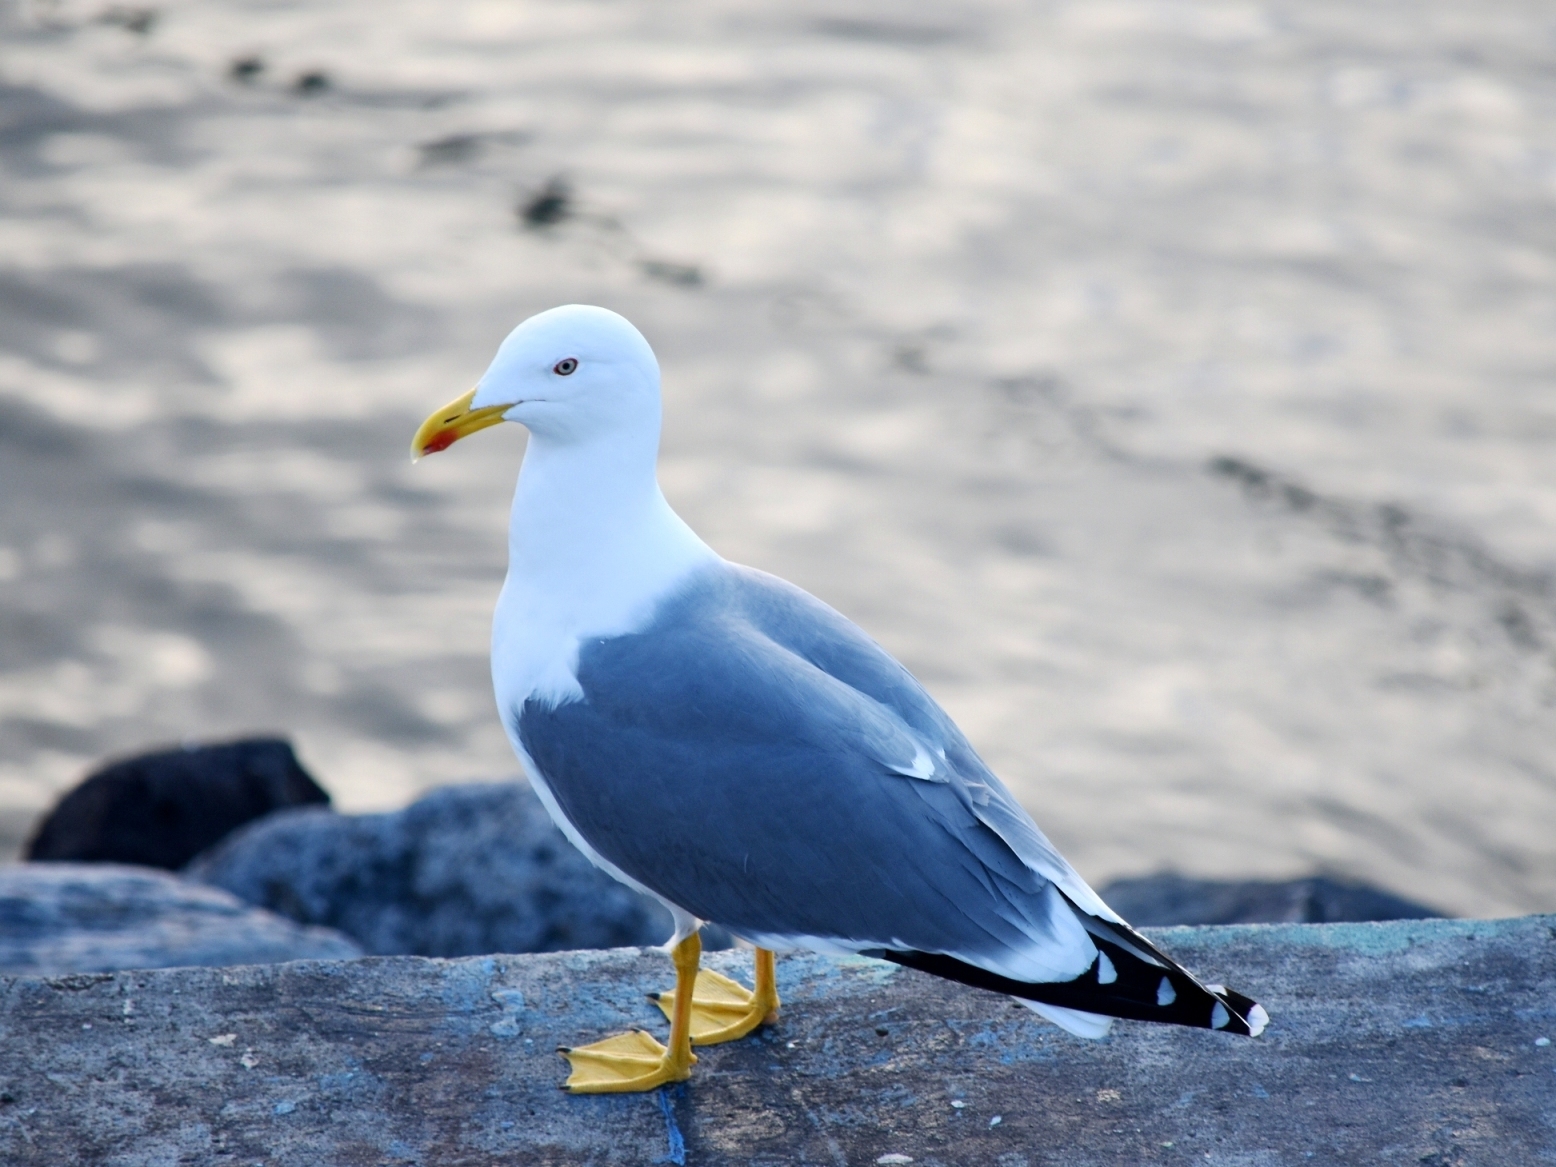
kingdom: Animalia
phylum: Chordata
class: Aves
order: Charadriiformes
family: Laridae
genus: Larus
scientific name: Larus michahellis
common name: Yellow-legged gull
